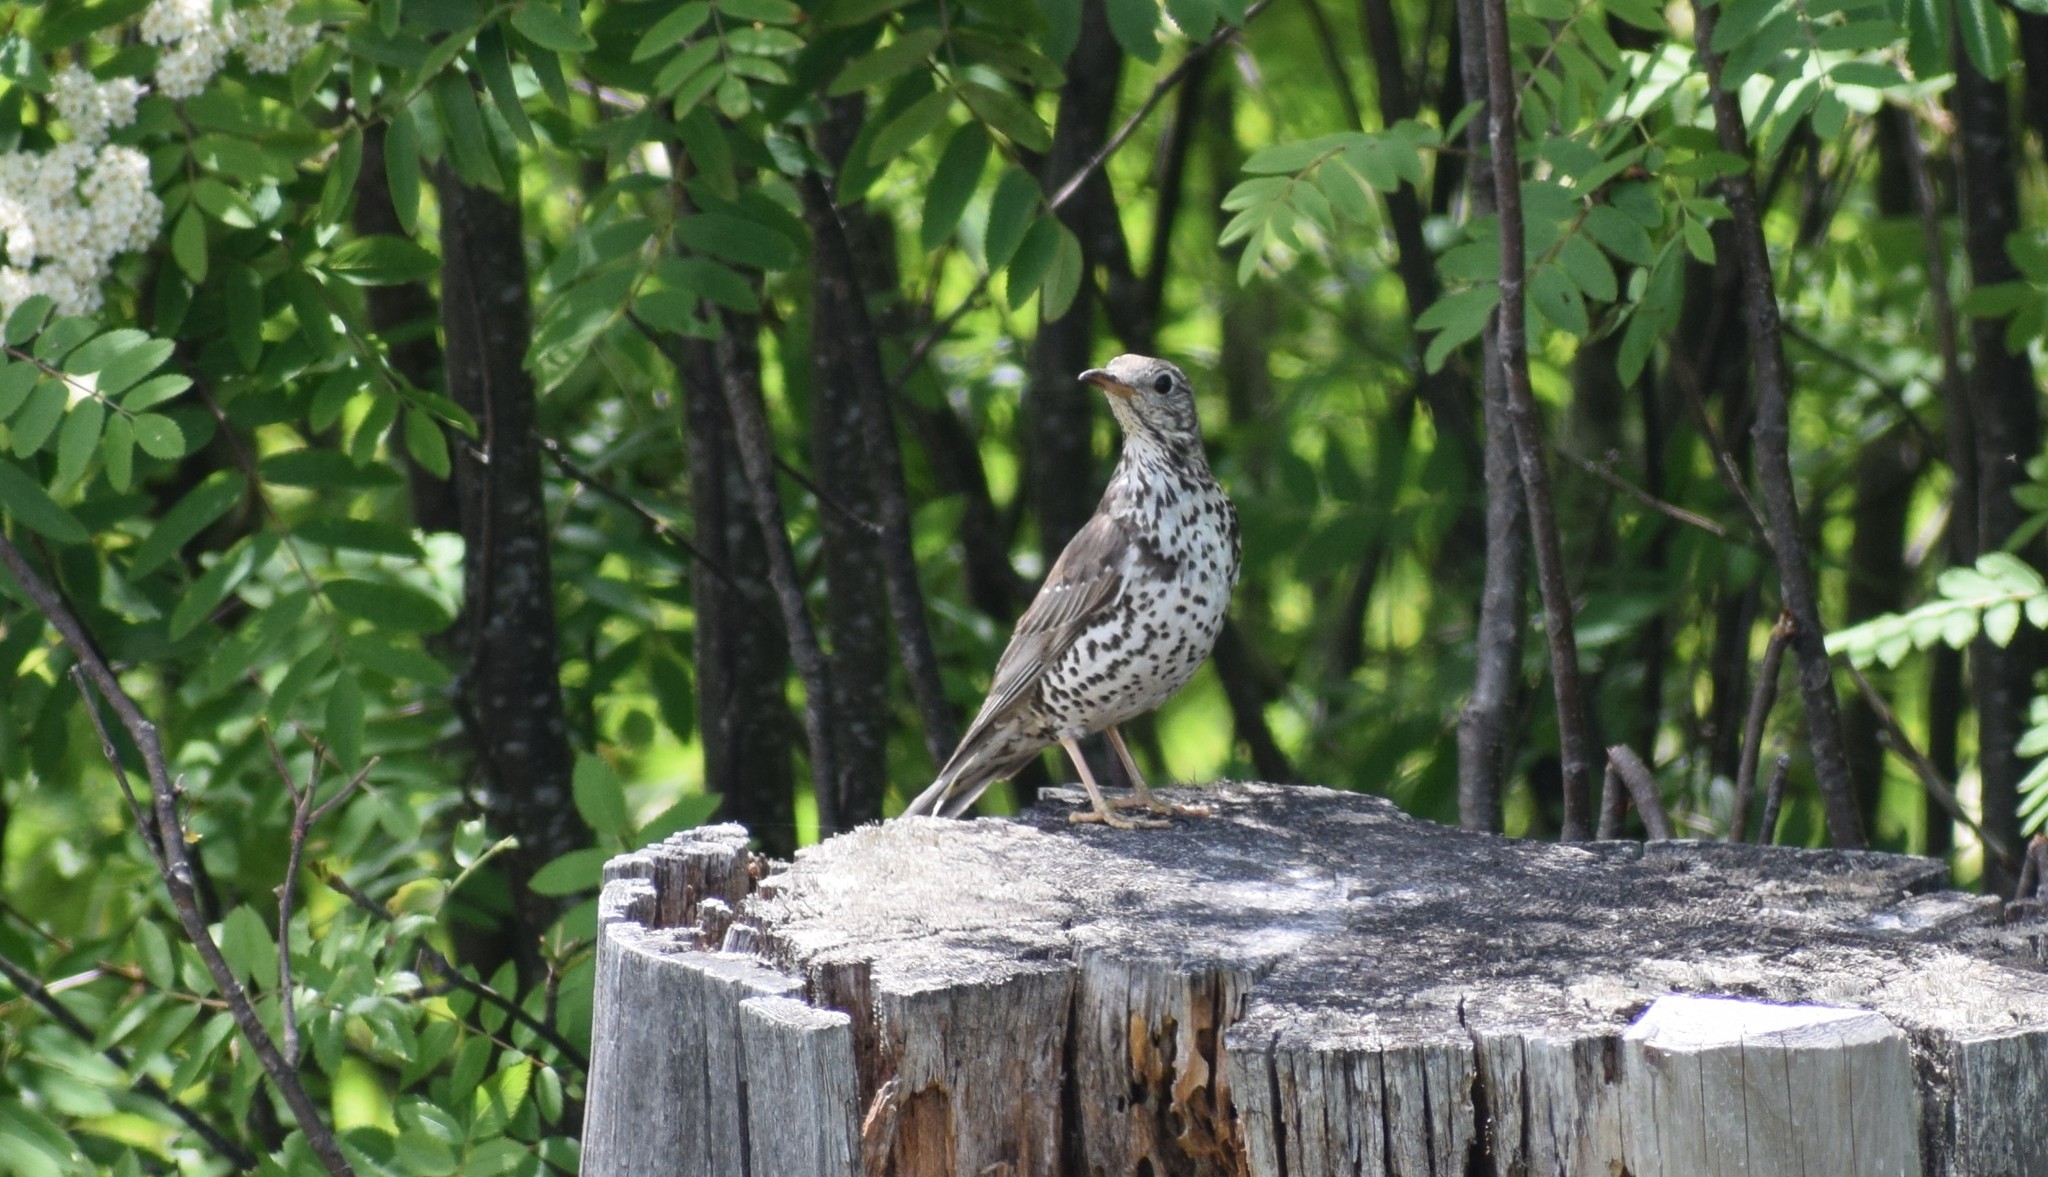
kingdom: Animalia
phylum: Chordata
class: Aves
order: Passeriformes
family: Turdidae
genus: Turdus
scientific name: Turdus viscivorus
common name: Mistle thrush
